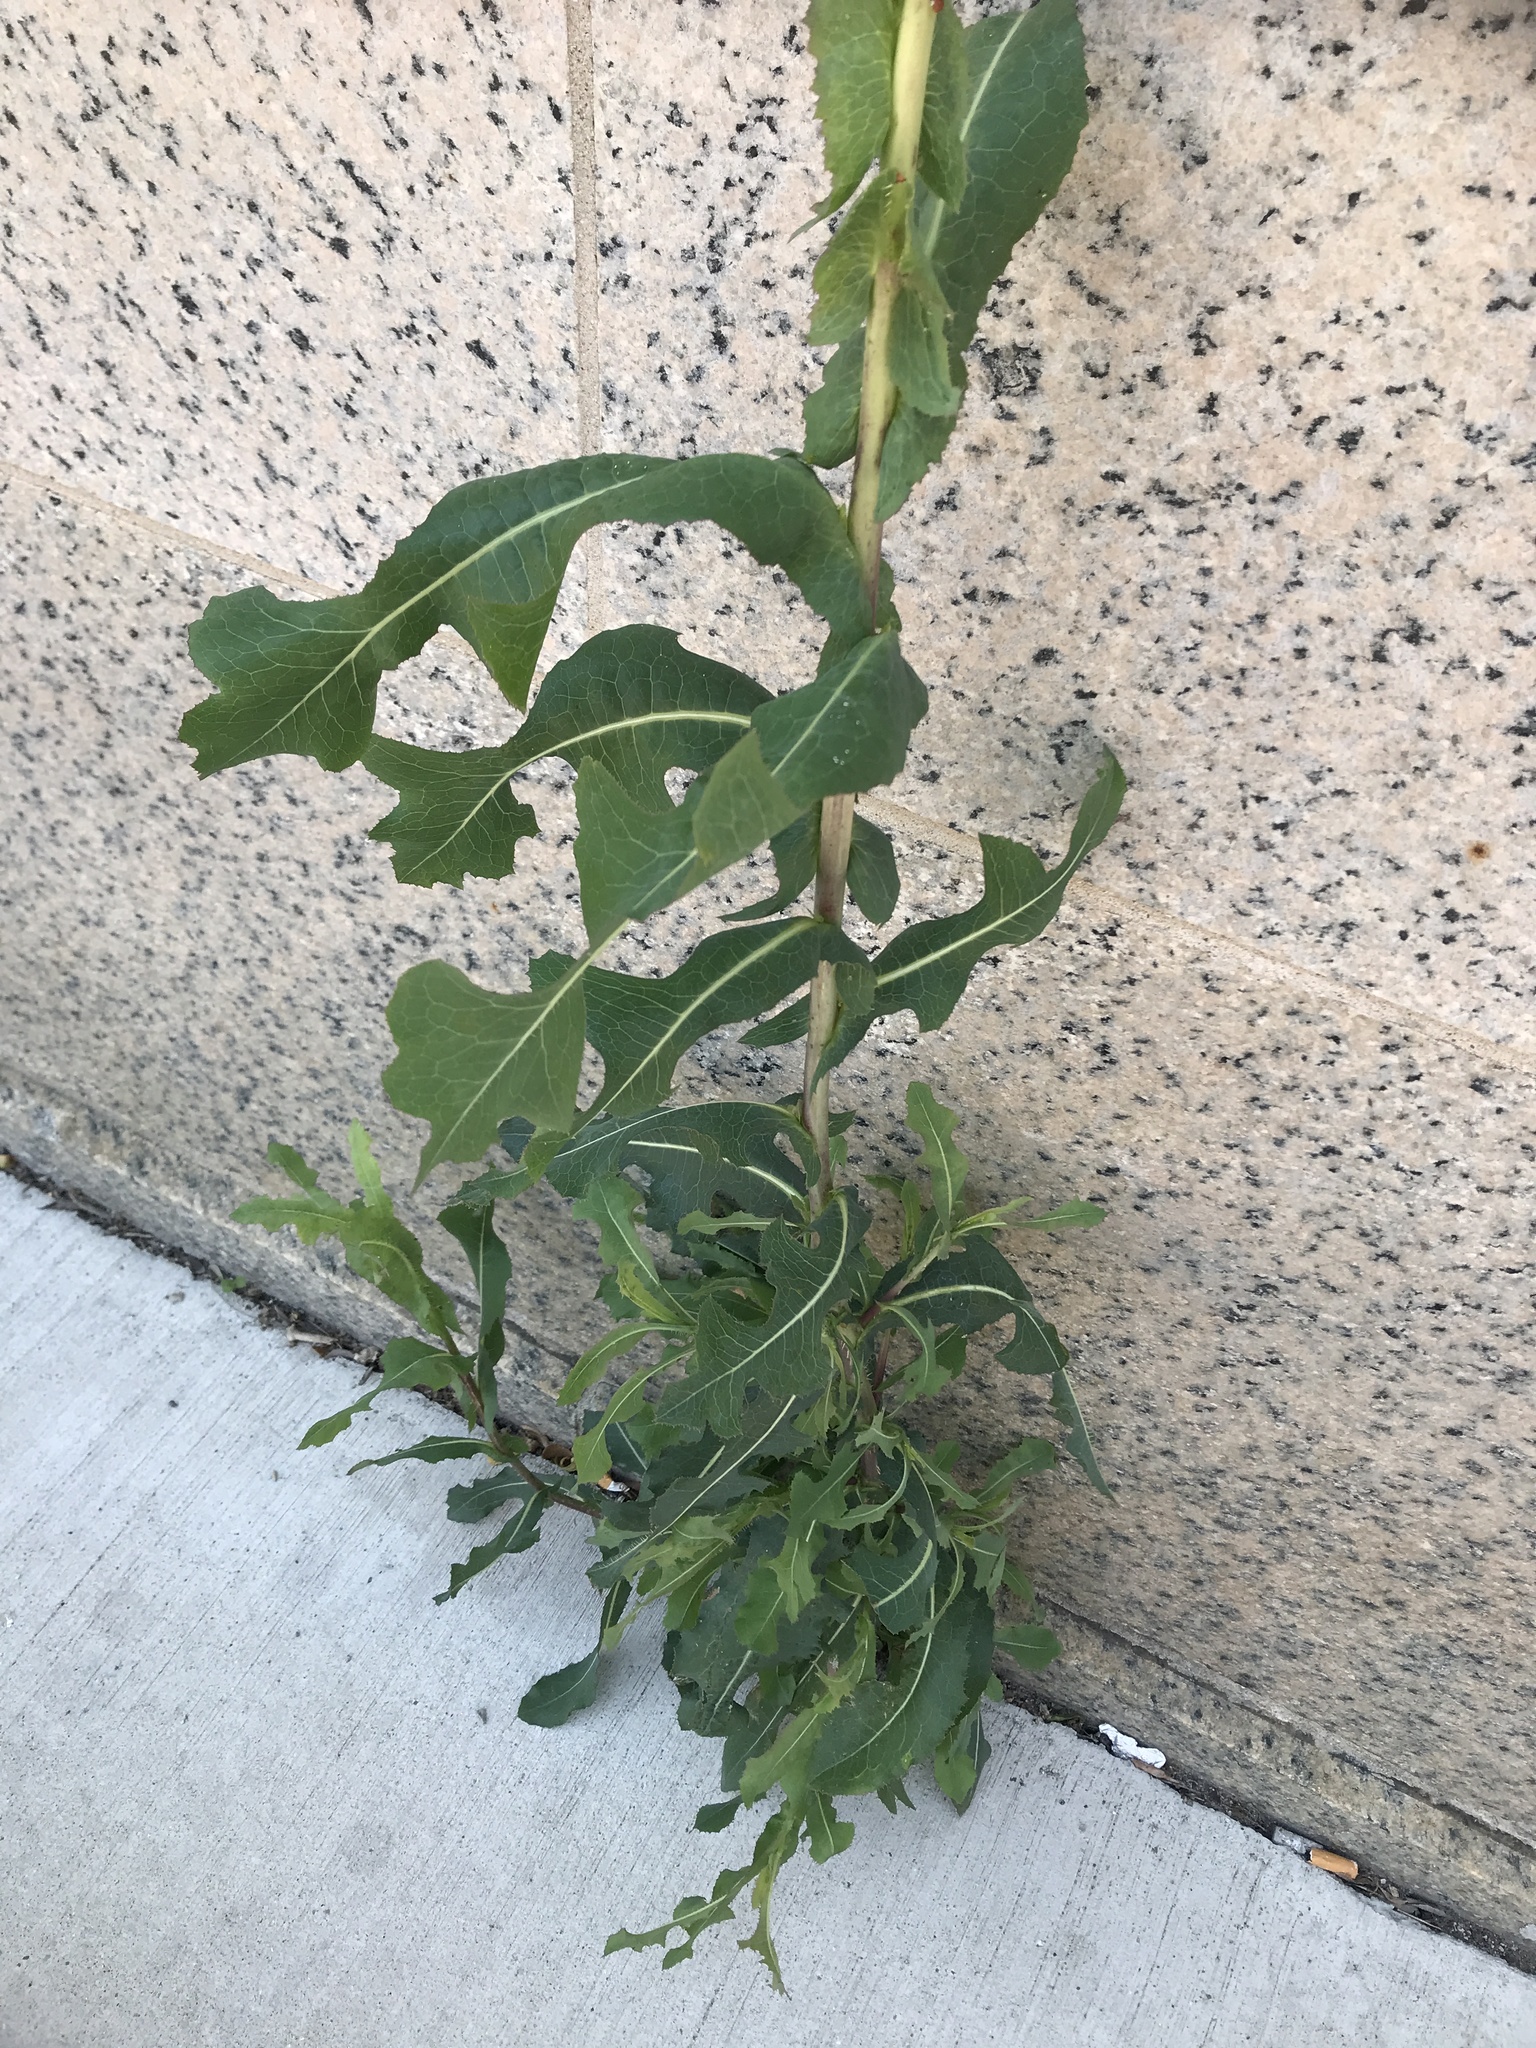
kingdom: Plantae
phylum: Tracheophyta
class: Magnoliopsida
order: Asterales
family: Asteraceae
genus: Lactuca
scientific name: Lactuca serriola
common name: Prickly lettuce
